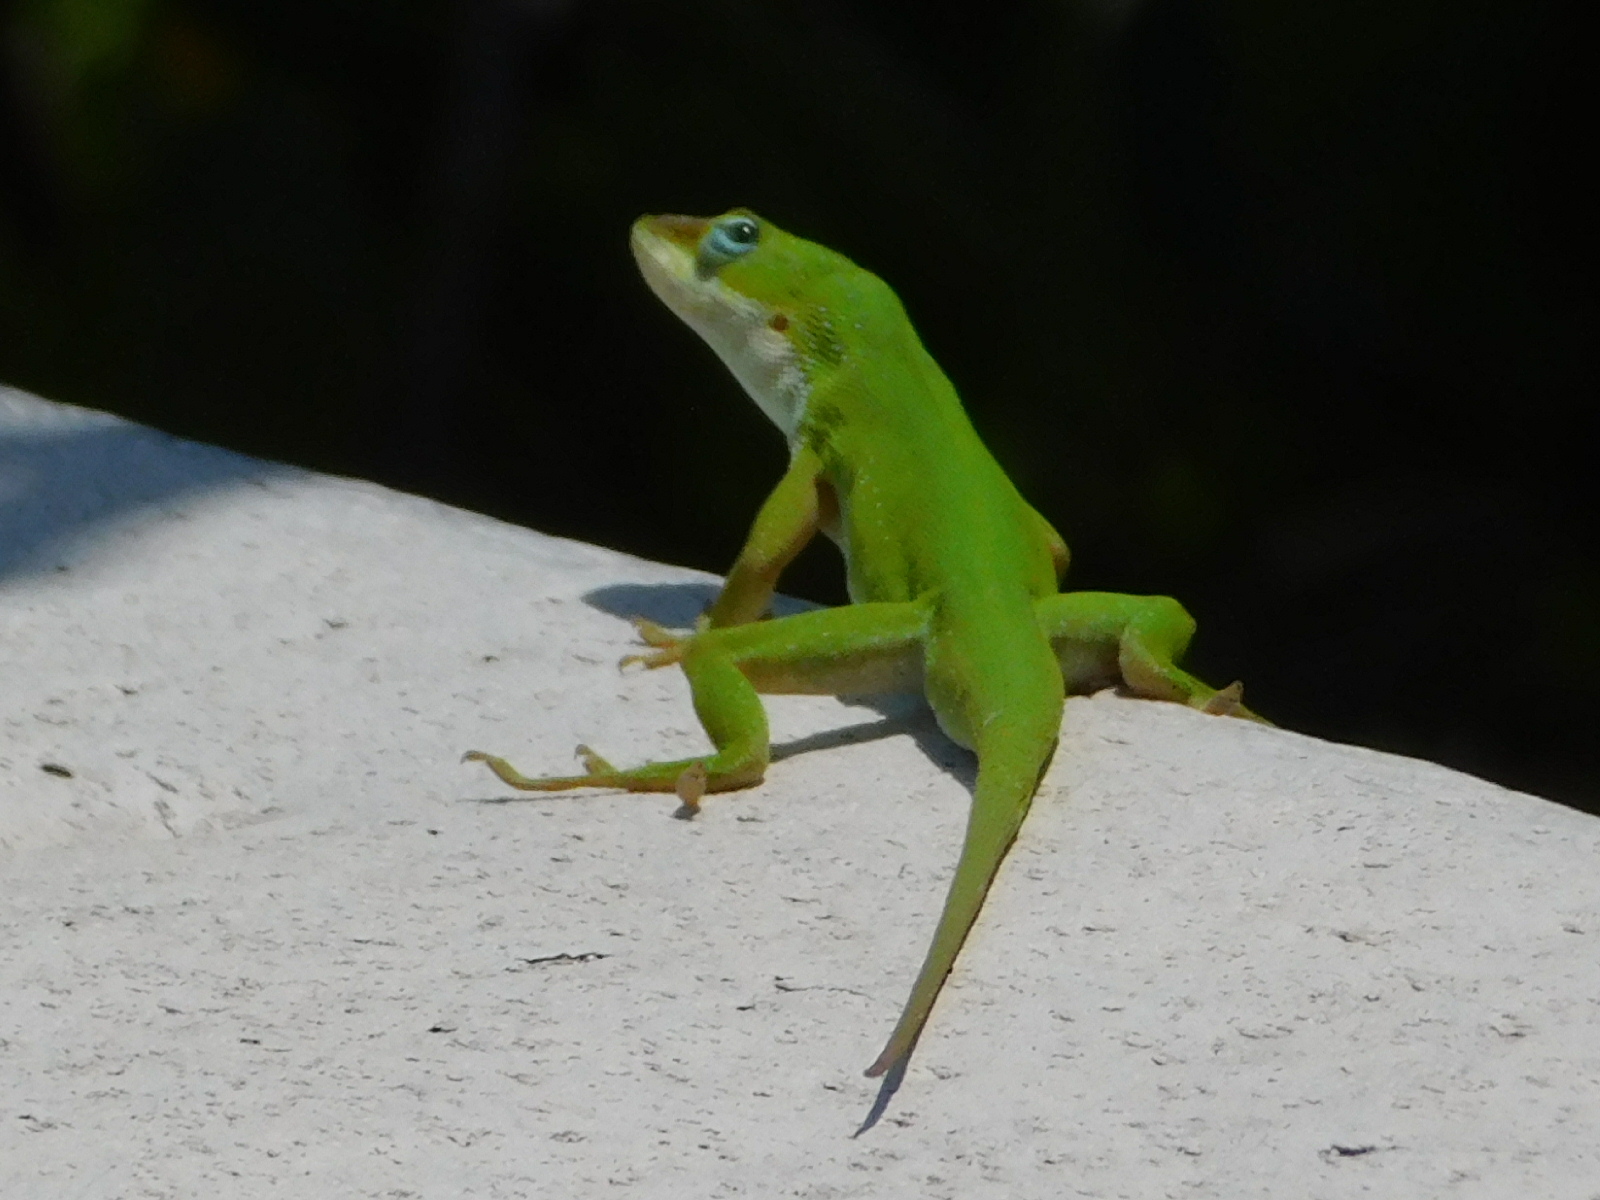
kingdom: Animalia
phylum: Chordata
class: Squamata
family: Dactyloidae
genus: Anolis
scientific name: Anolis carolinensis
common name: Green anole
